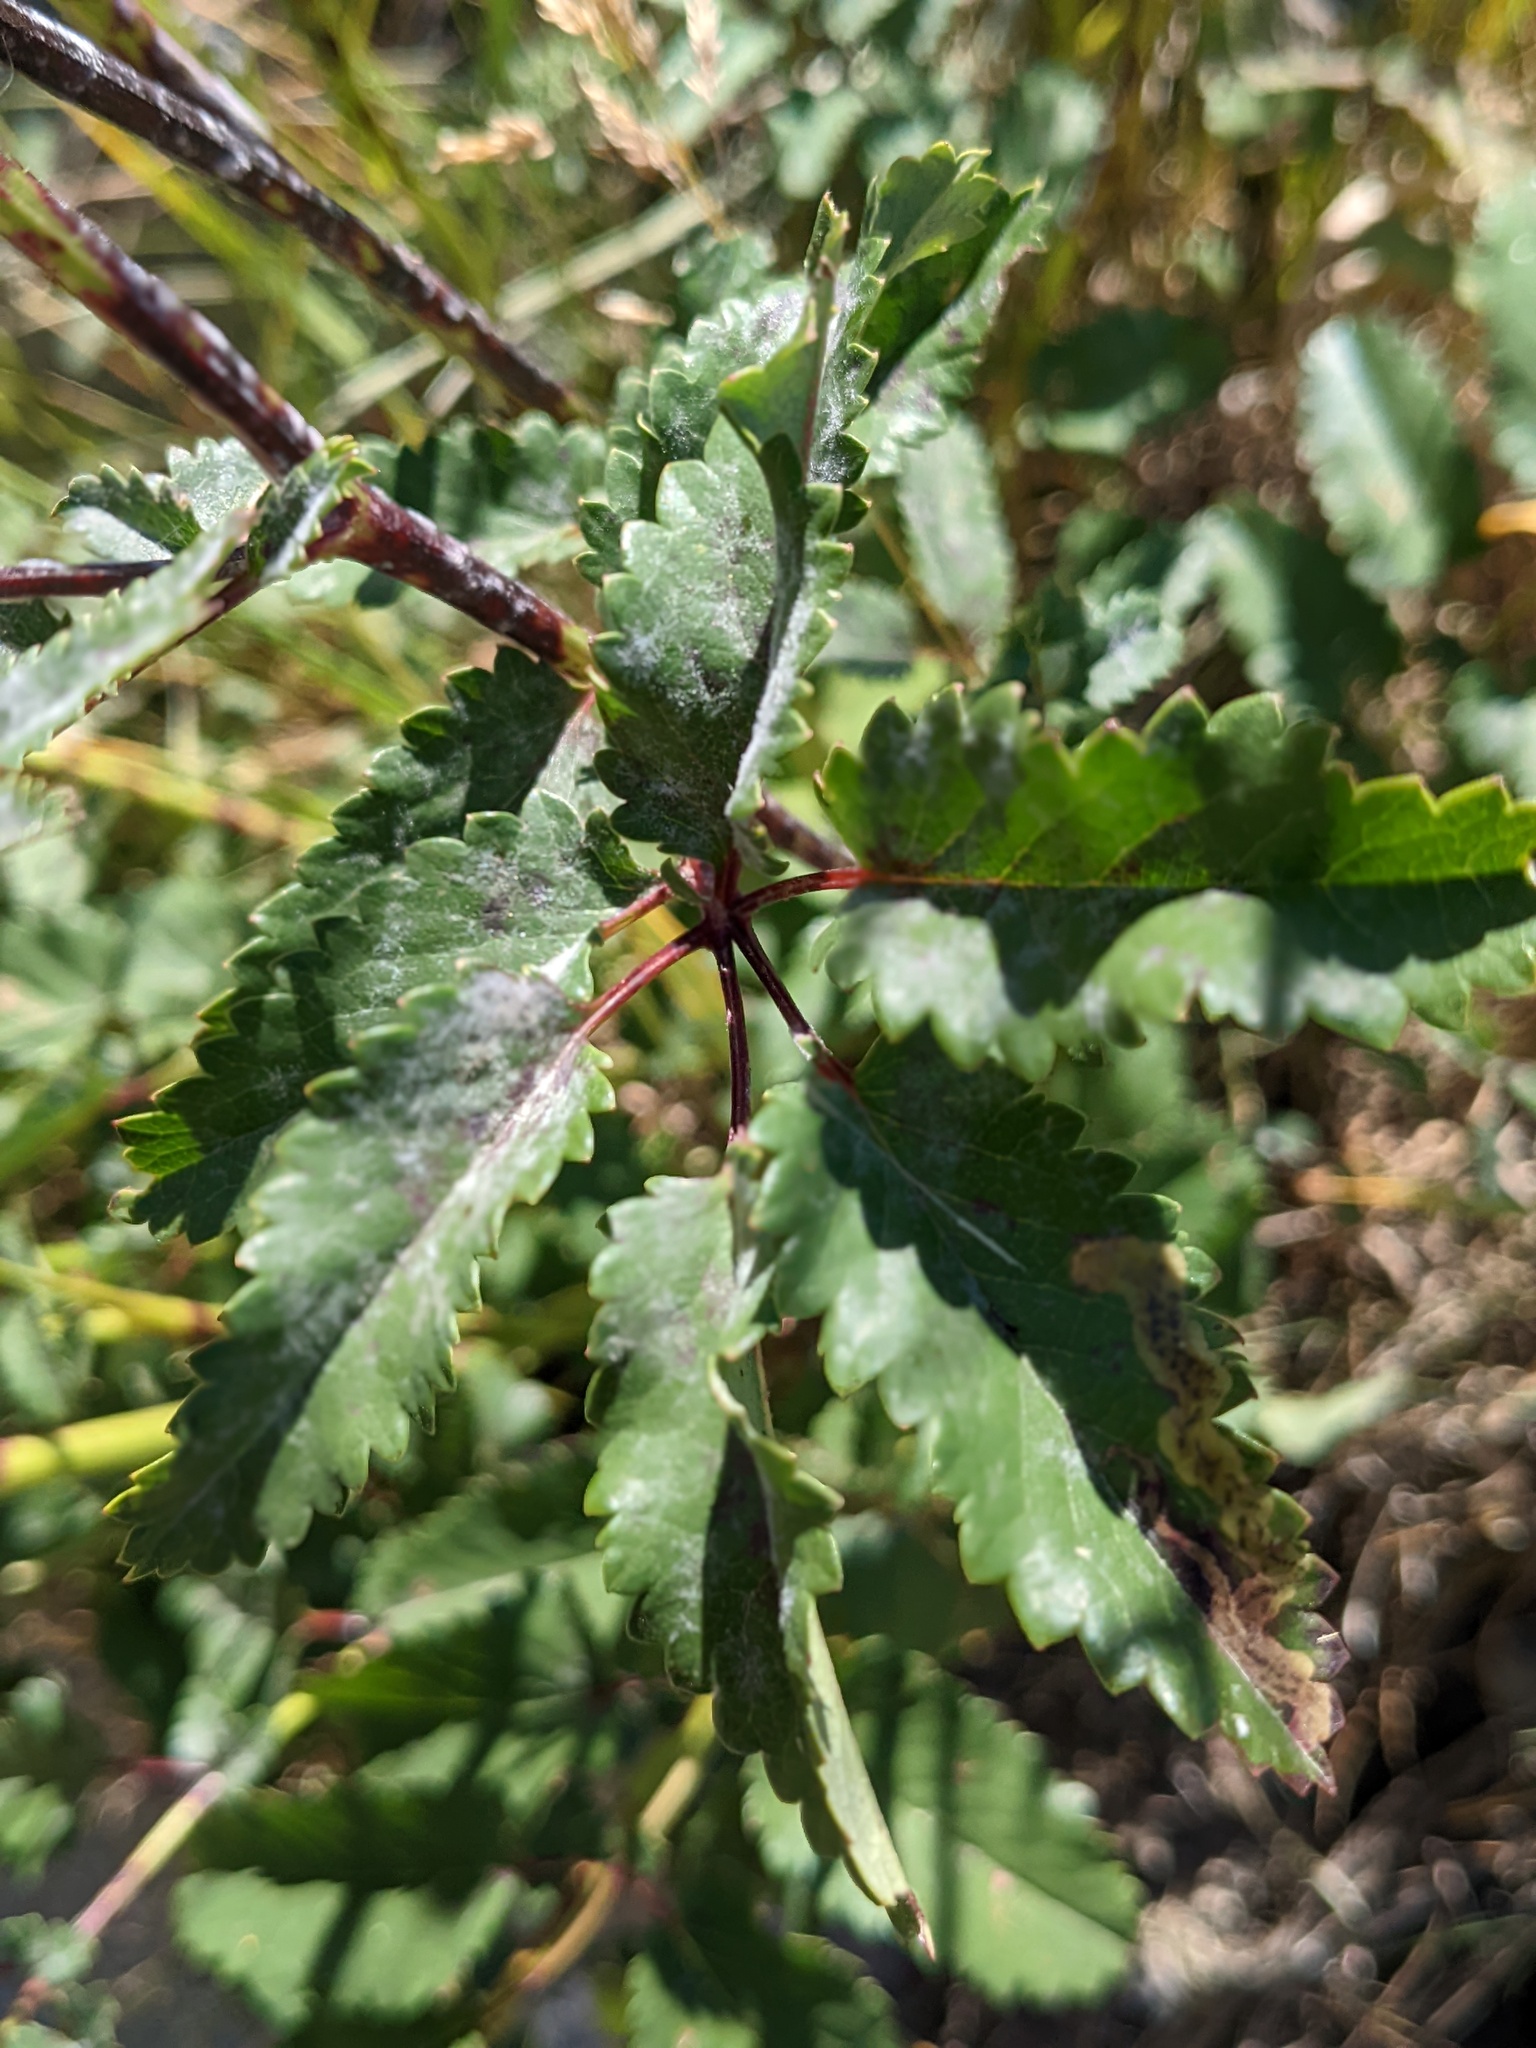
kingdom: Plantae
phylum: Tracheophyta
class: Magnoliopsida
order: Rosales
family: Rosaceae
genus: Sanguisorba
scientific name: Sanguisorba officinalis
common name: Great burnet
